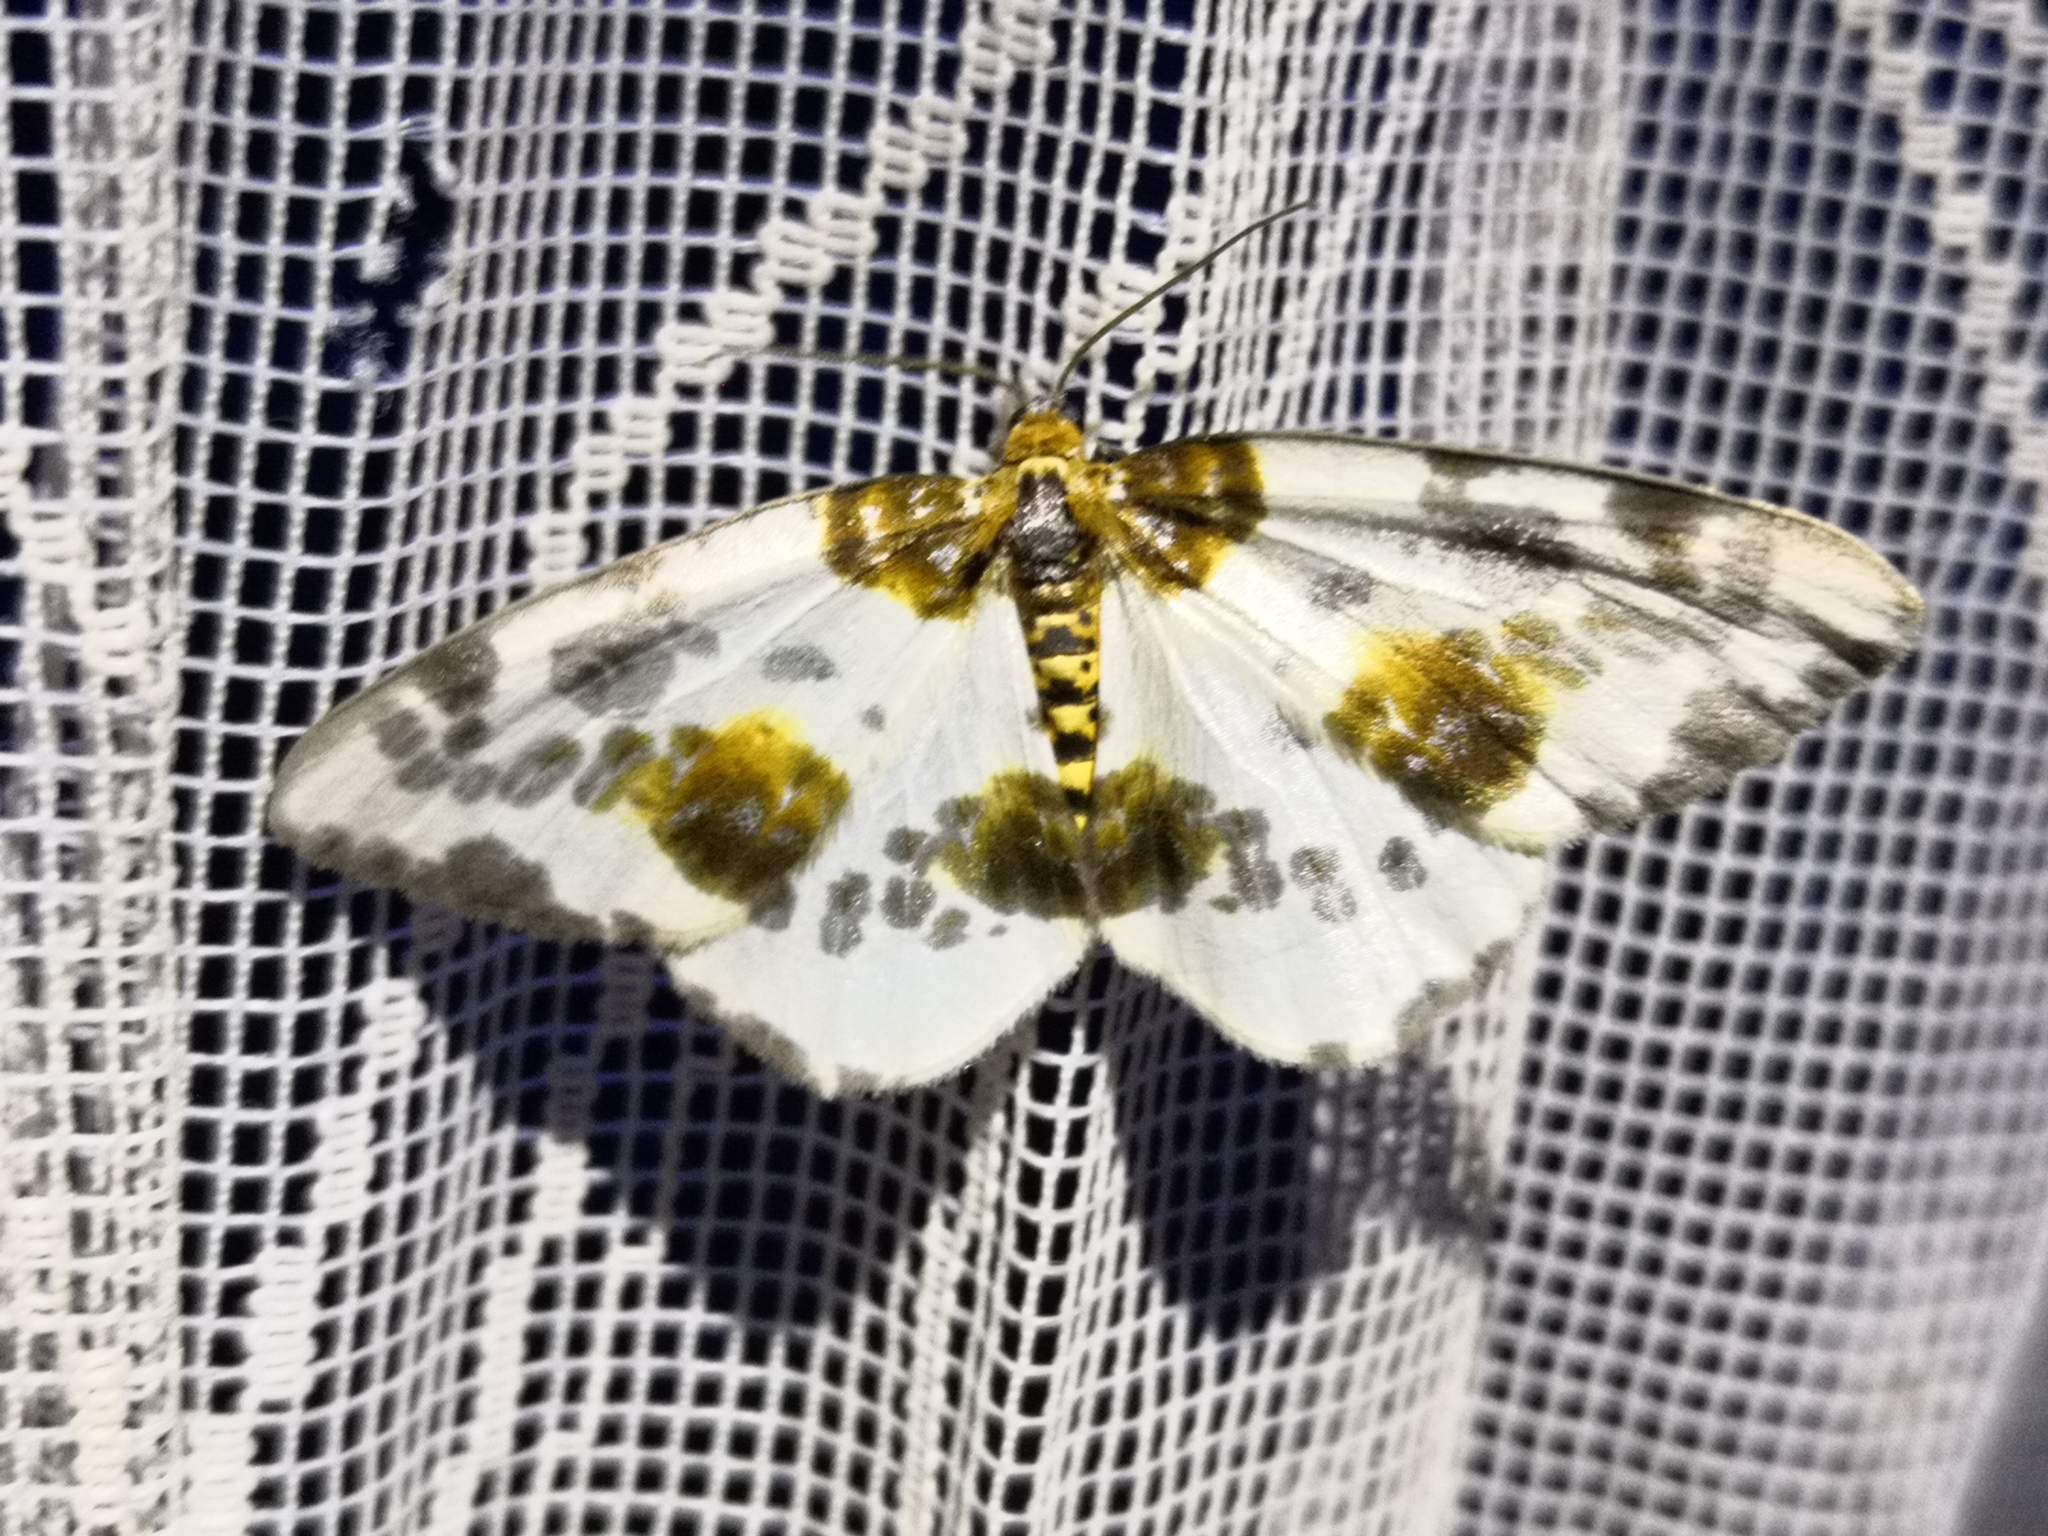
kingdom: Animalia
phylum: Arthropoda
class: Insecta
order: Lepidoptera
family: Geometridae
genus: Abraxas
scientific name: Abraxas sylvata
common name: Clouded magpie
